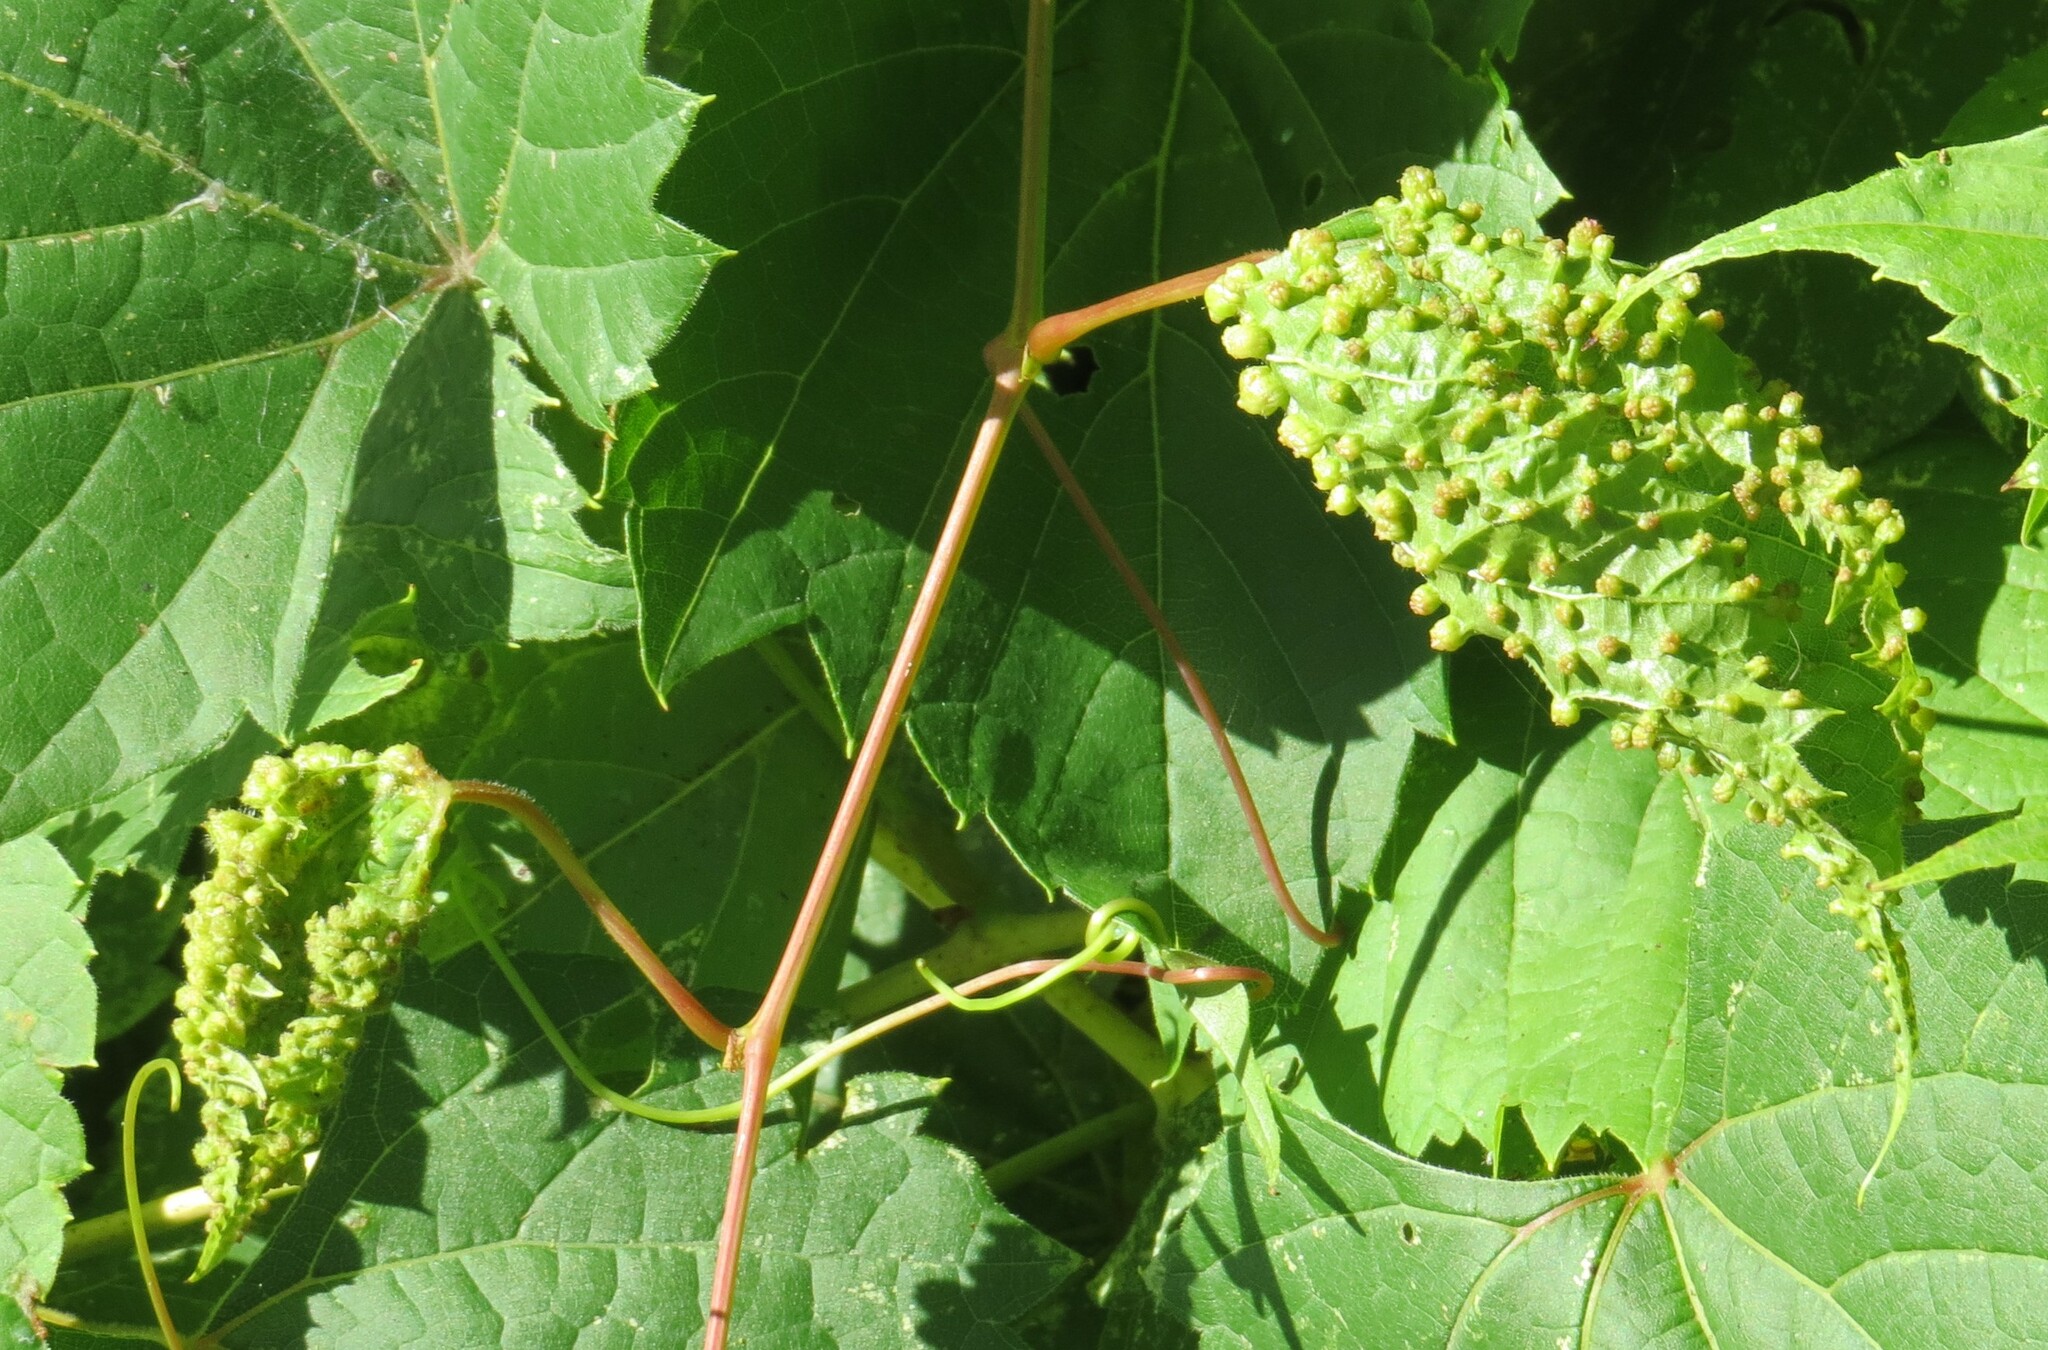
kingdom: Animalia
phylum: Arthropoda
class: Insecta
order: Hemiptera
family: Phylloxeridae
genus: Daktulosphaira
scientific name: Daktulosphaira vitifoliae
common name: Grape phylloxera
